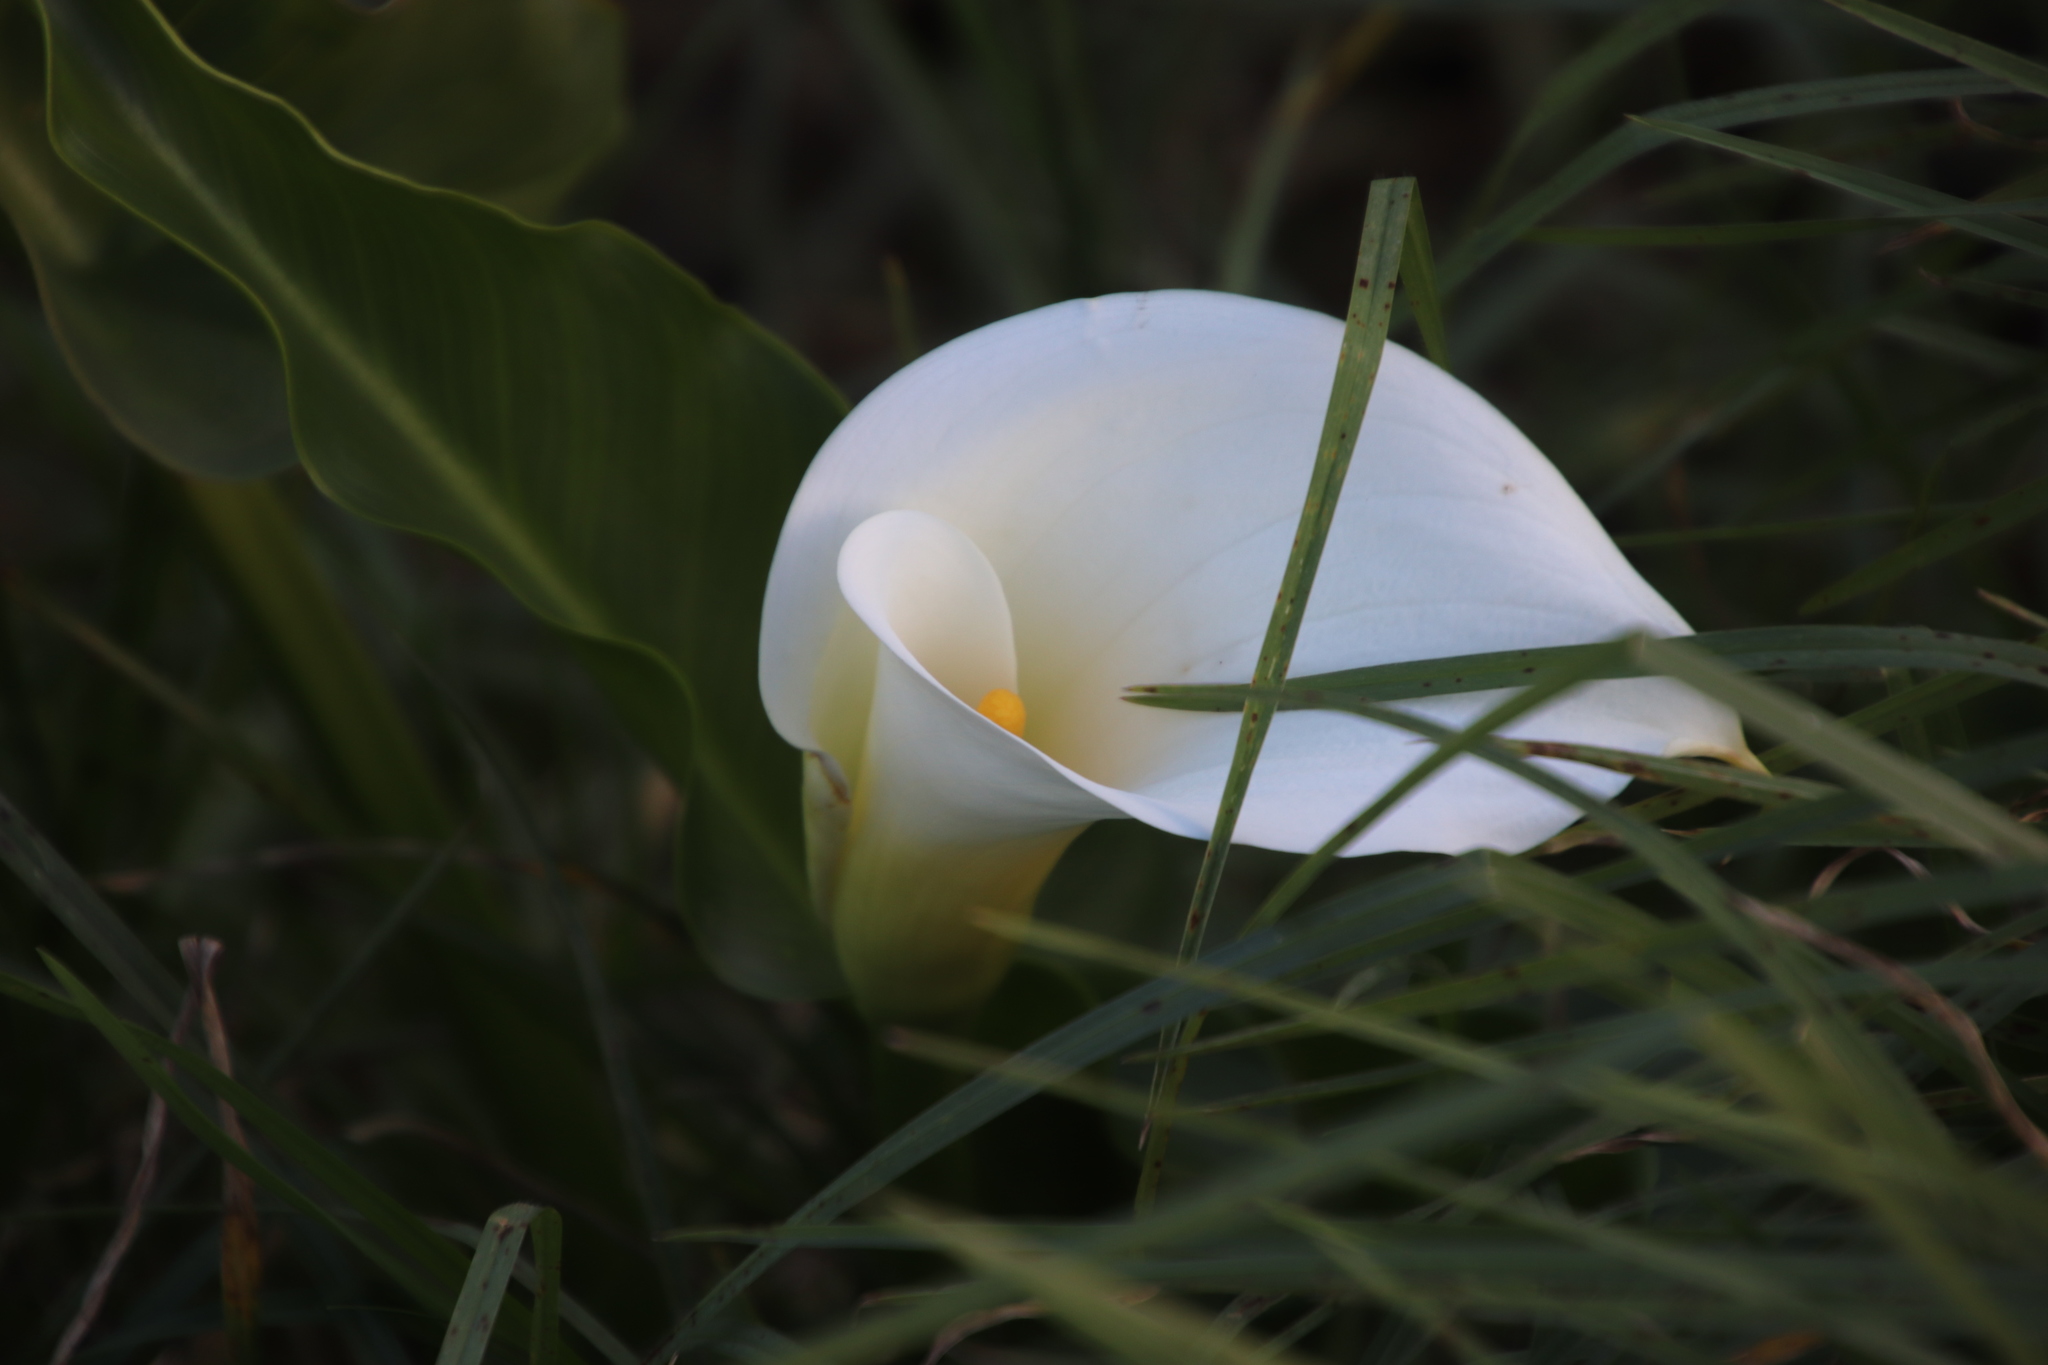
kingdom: Plantae
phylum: Tracheophyta
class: Liliopsida
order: Alismatales
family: Araceae
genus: Zantedeschia
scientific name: Zantedeschia aethiopica
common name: Altar-lily
